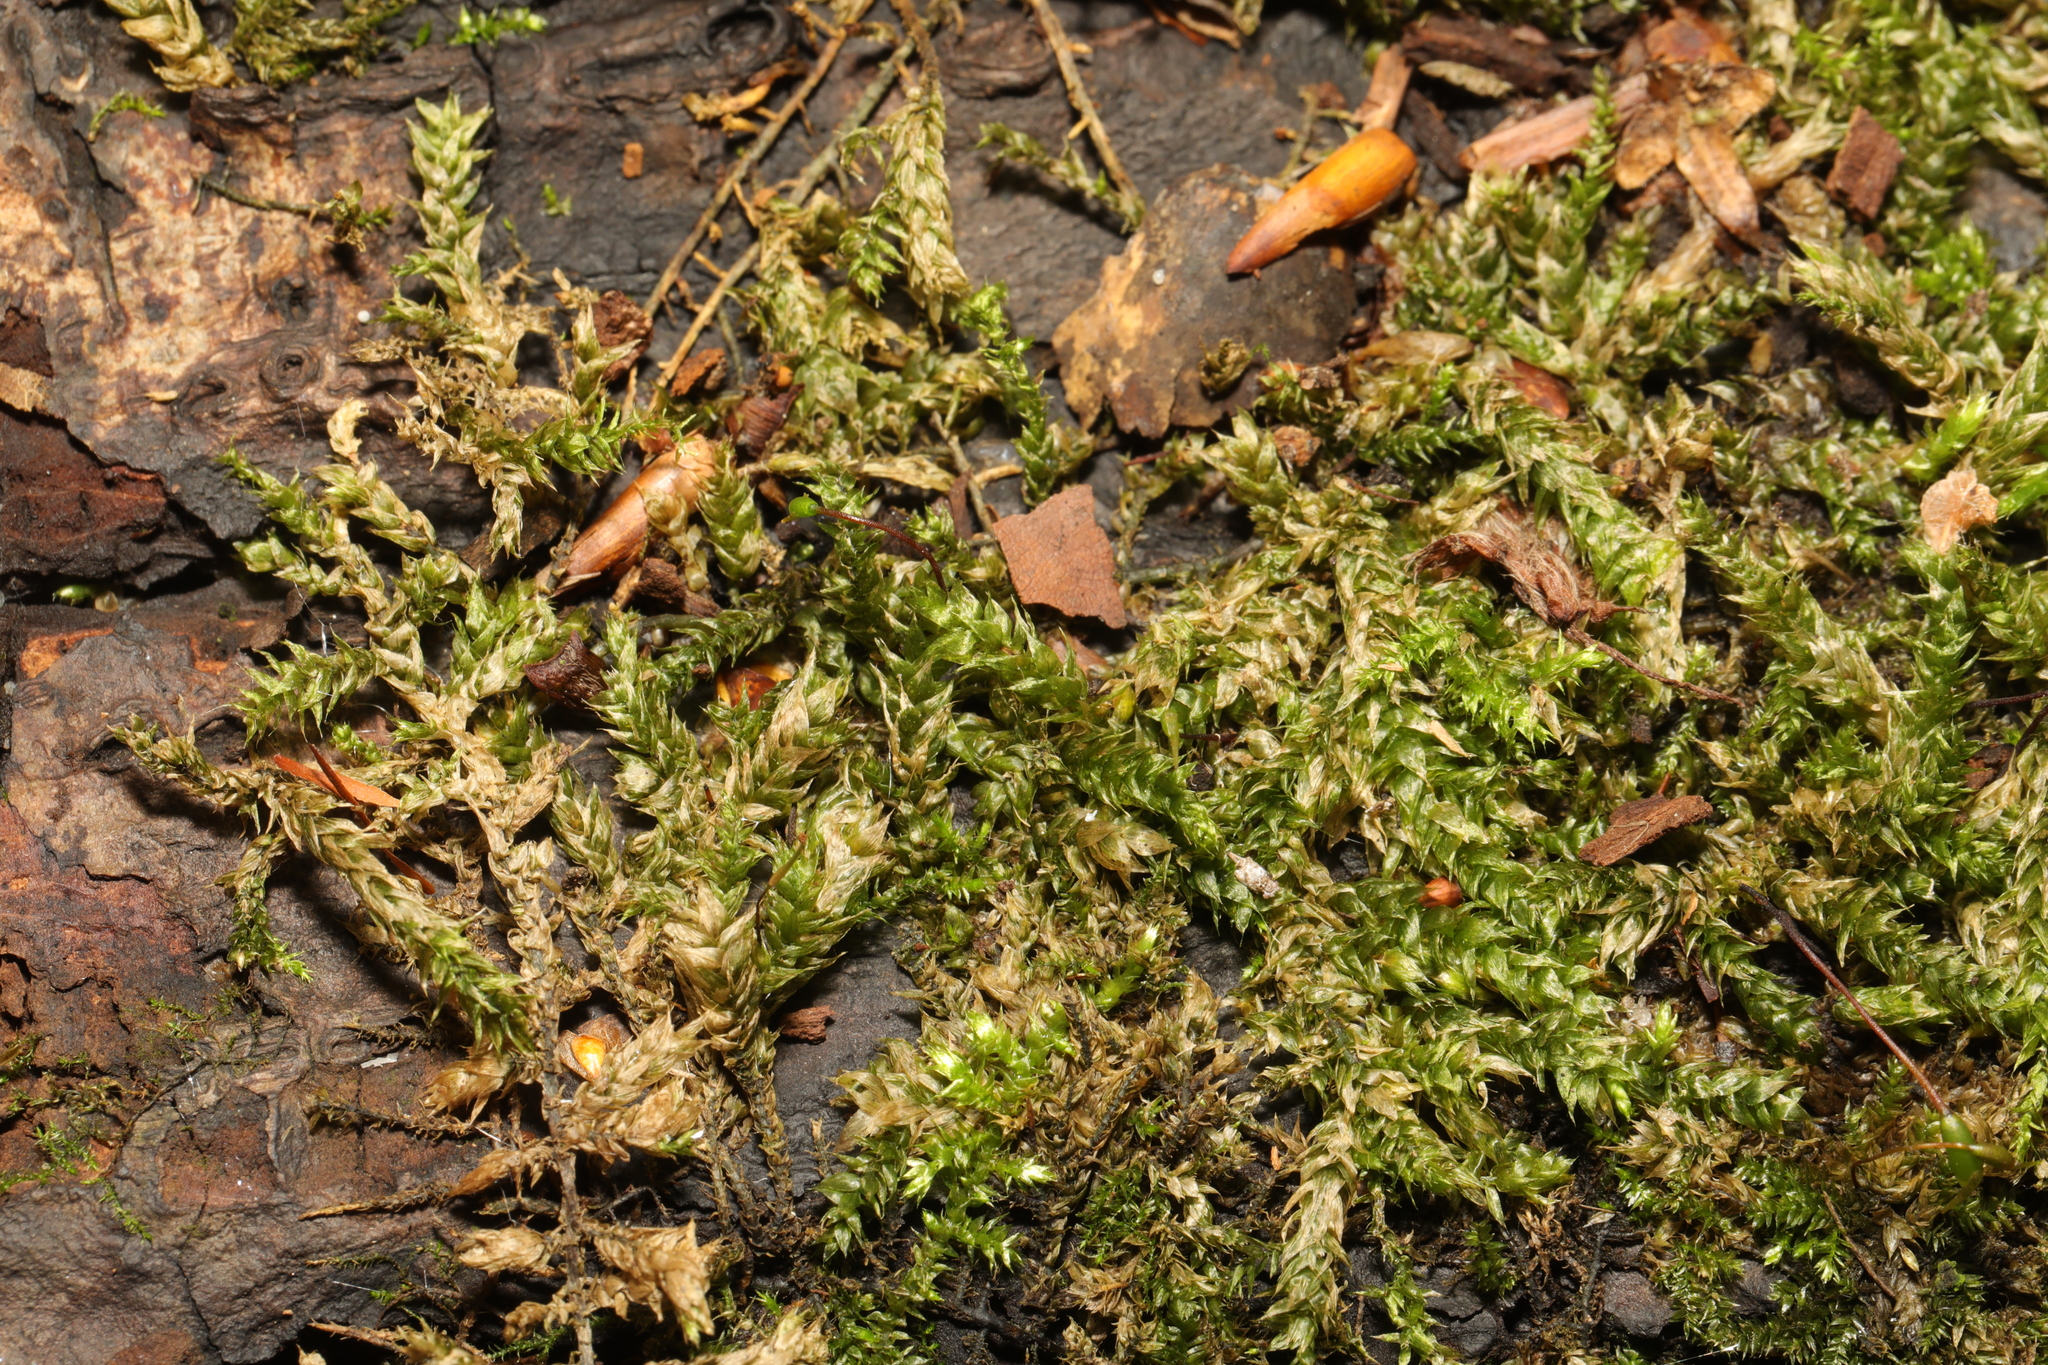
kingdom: Plantae
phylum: Bryophyta
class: Bryopsida
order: Hypnales
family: Hypnaceae
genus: Hypnum
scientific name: Hypnum cupressiforme
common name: Cypress-leaved plait-moss
